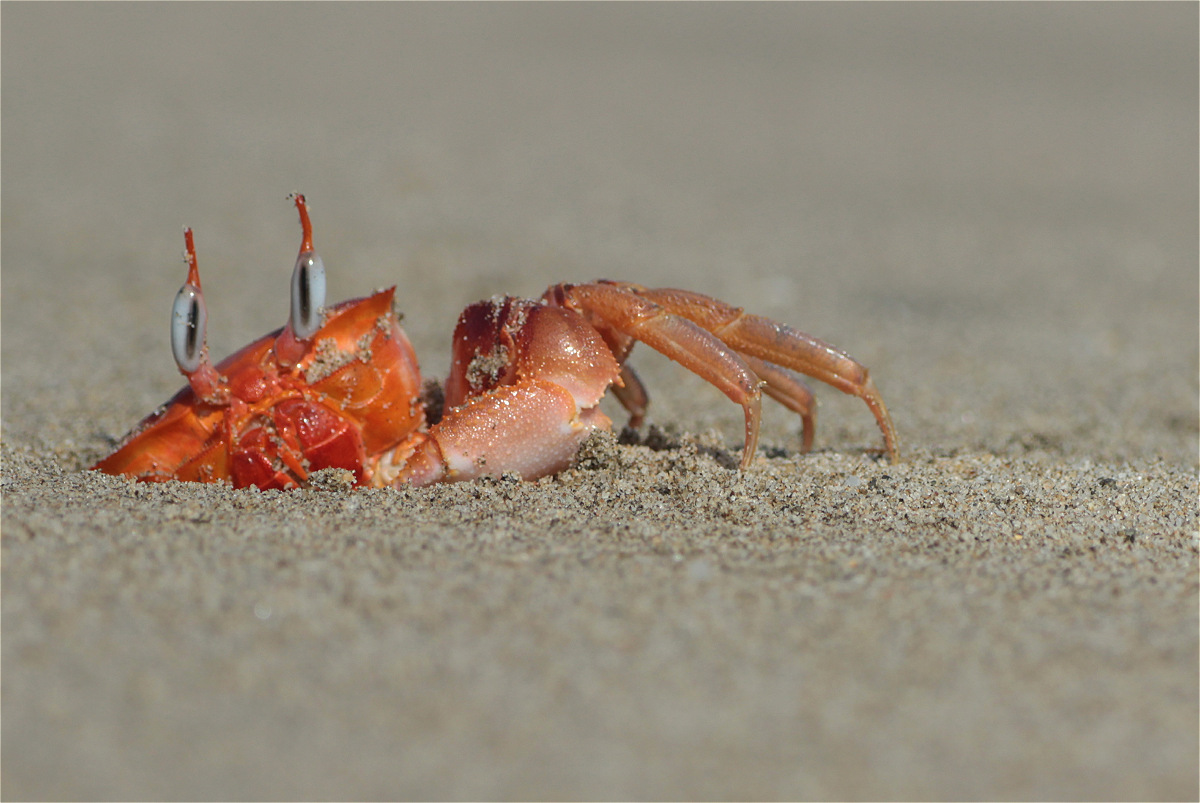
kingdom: Animalia
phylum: Arthropoda
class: Malacostraca
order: Decapoda
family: Ocypodidae
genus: Ocypode
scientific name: Ocypode gaudichaudii
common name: Pacific ghost crab
